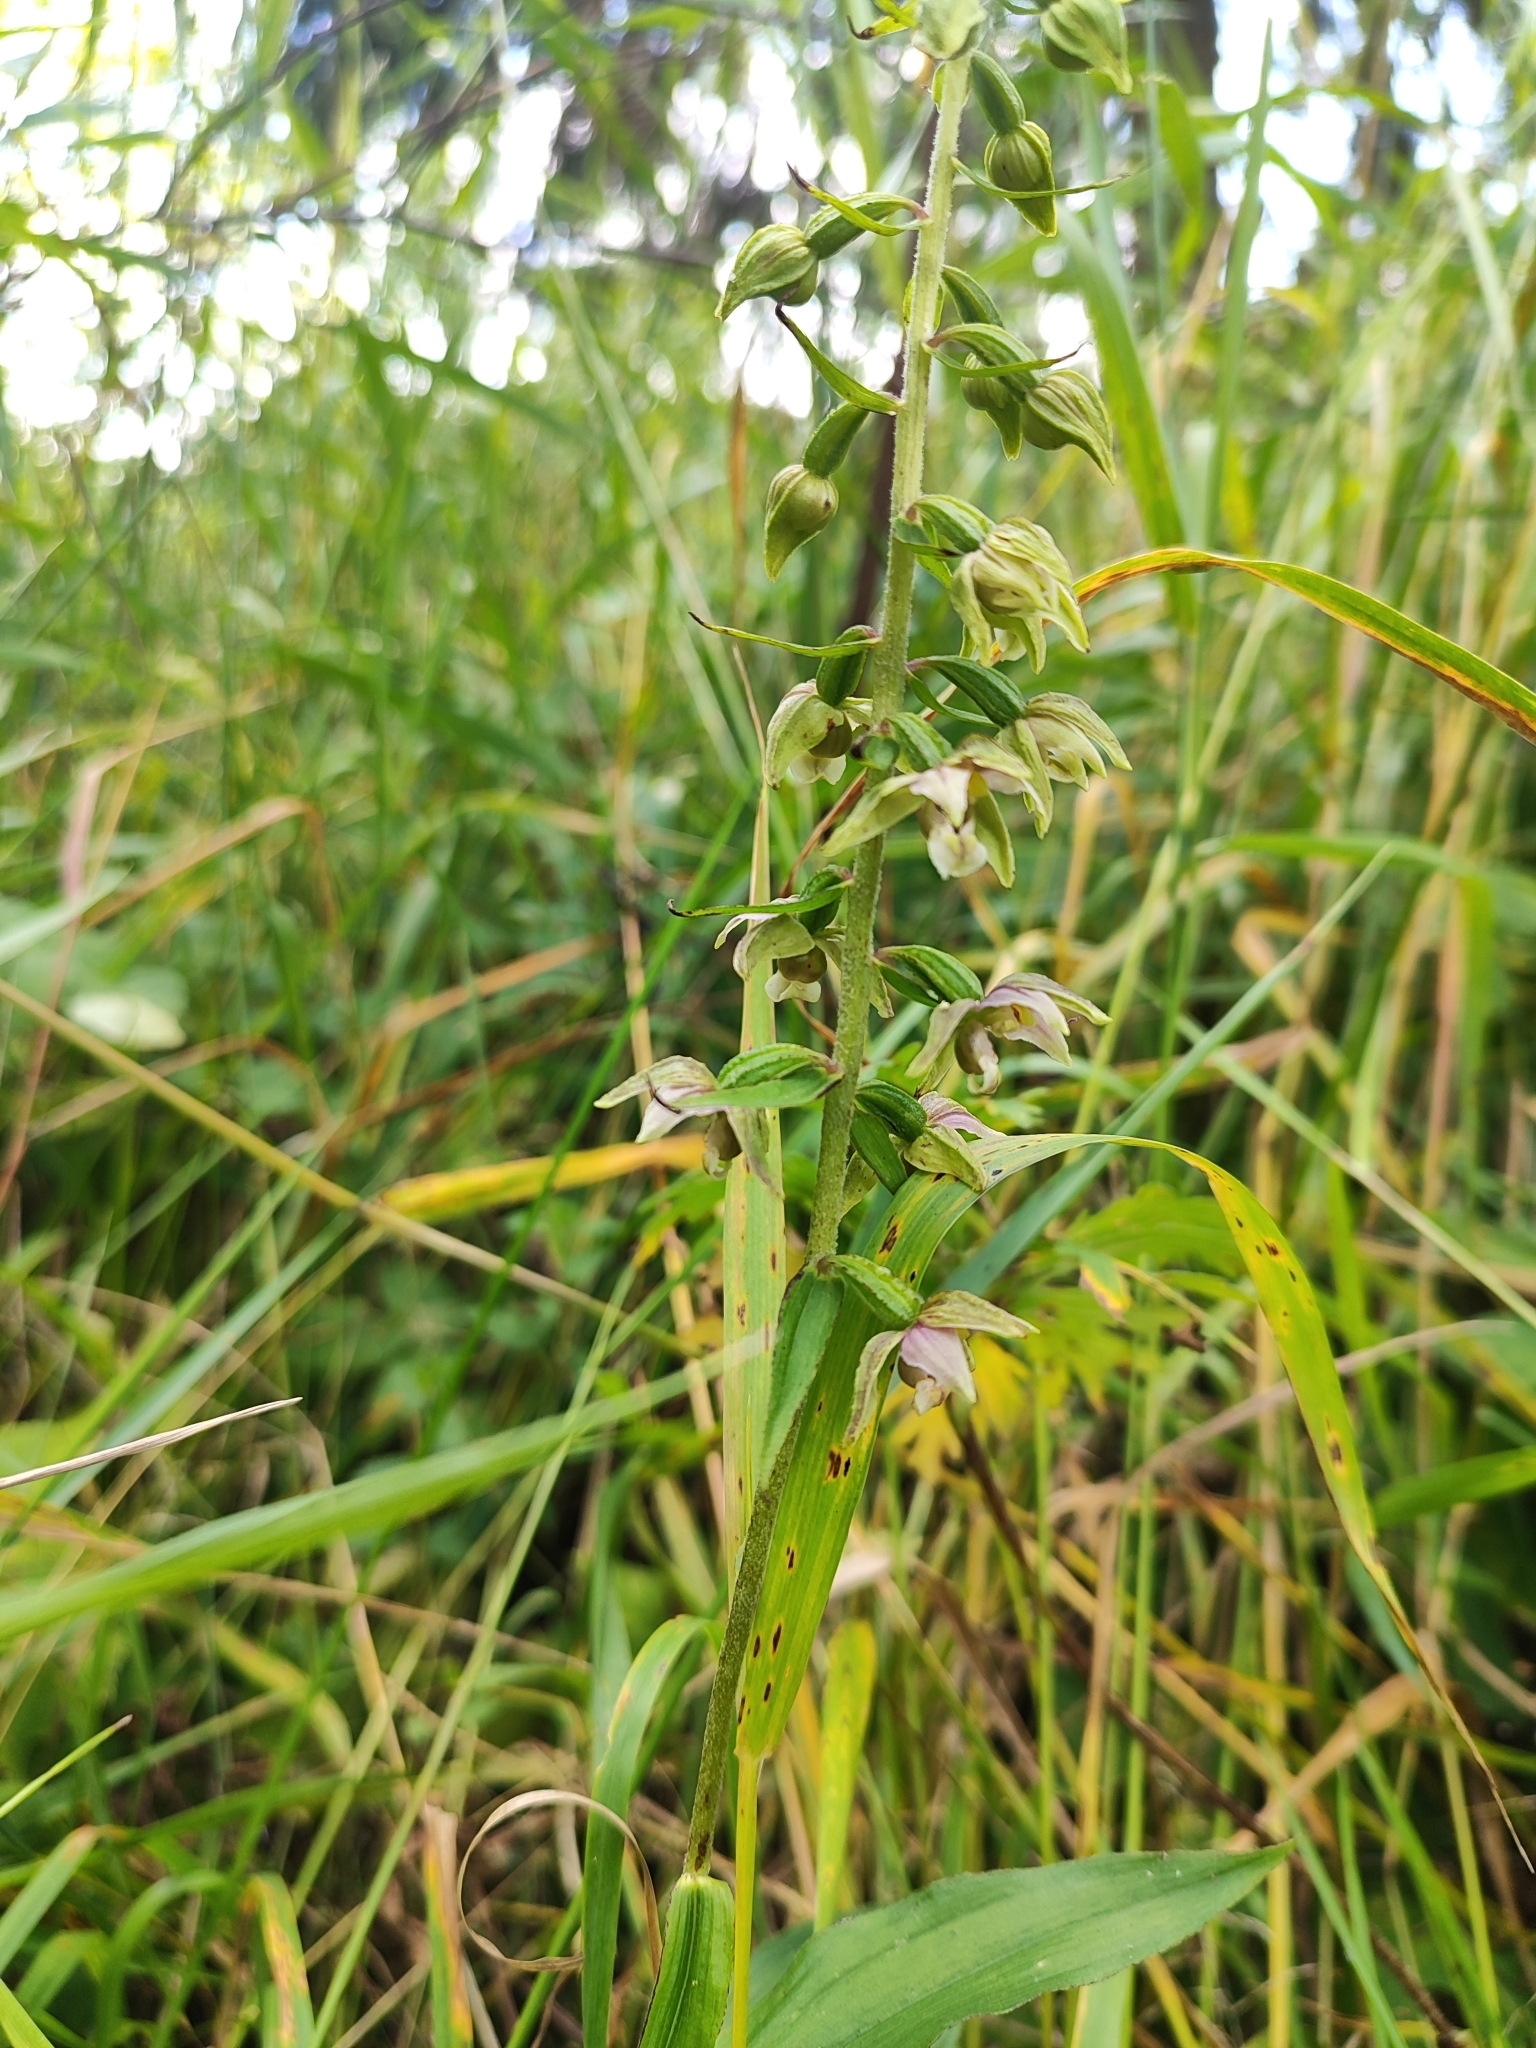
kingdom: Plantae
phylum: Tracheophyta
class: Liliopsida
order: Asparagales
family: Orchidaceae
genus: Epipactis
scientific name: Epipactis helleborine
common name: Broad-leaved helleborine
